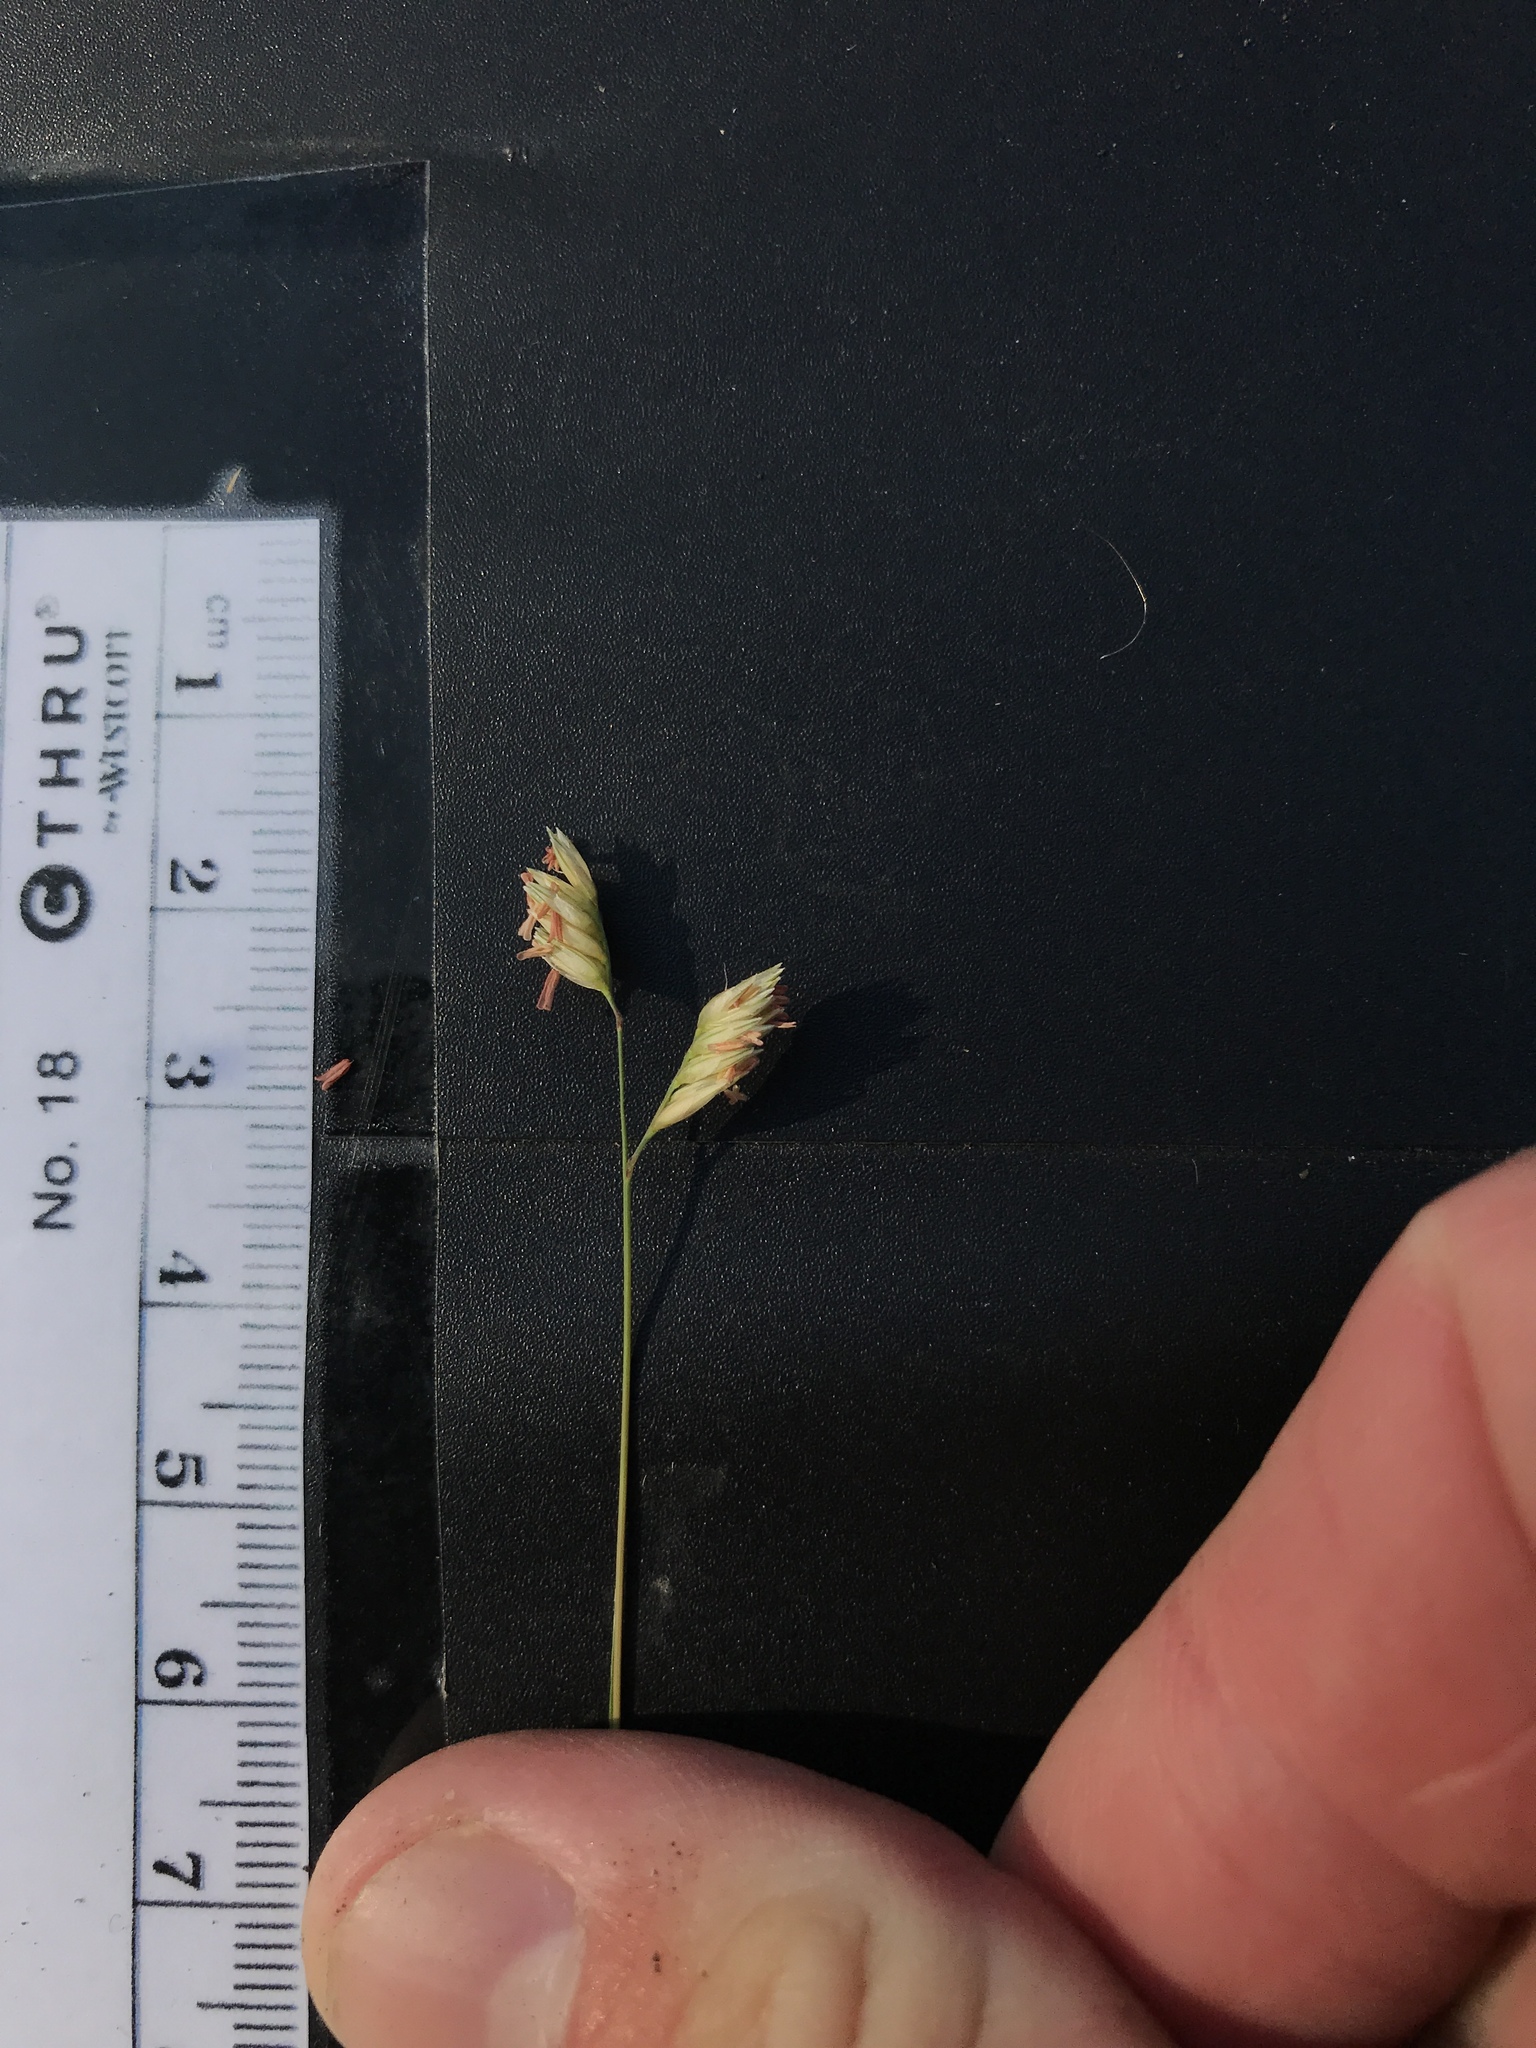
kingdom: Plantae
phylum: Tracheophyta
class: Liliopsida
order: Poales
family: Poaceae
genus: Bouteloua
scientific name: Bouteloua dactyloides
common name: Buffalo grass
